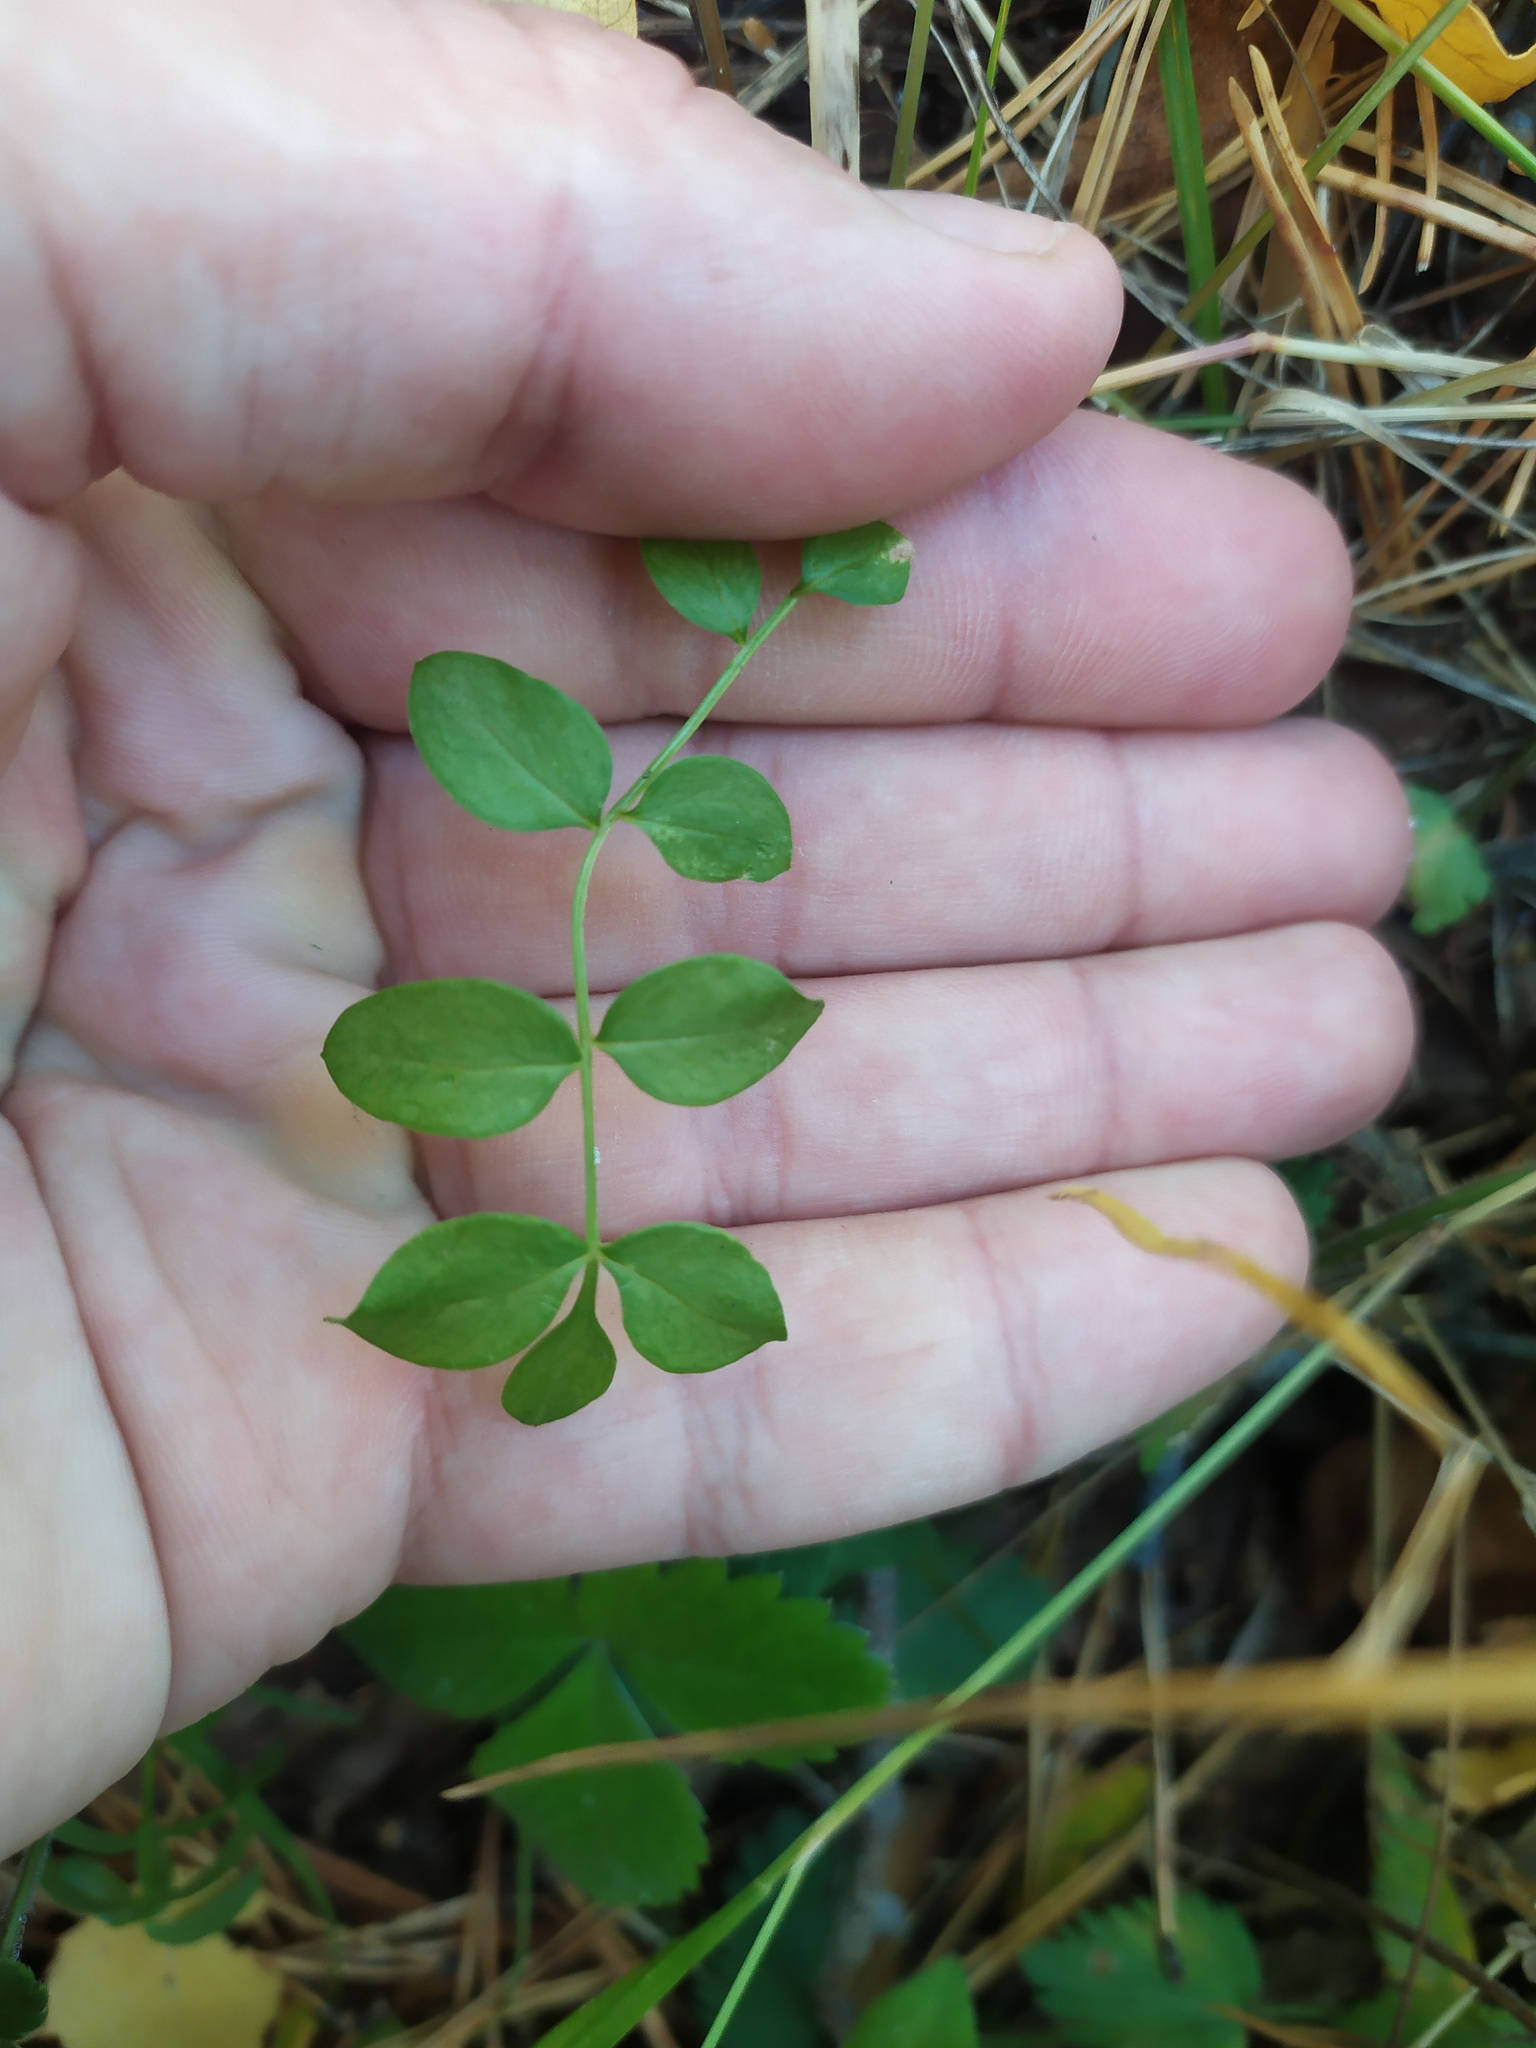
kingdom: Plantae
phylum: Tracheophyta
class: Magnoliopsida
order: Ericales
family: Polemoniaceae
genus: Polemonium
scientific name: Polemonium caeruleum
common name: Jacob's-ladder
